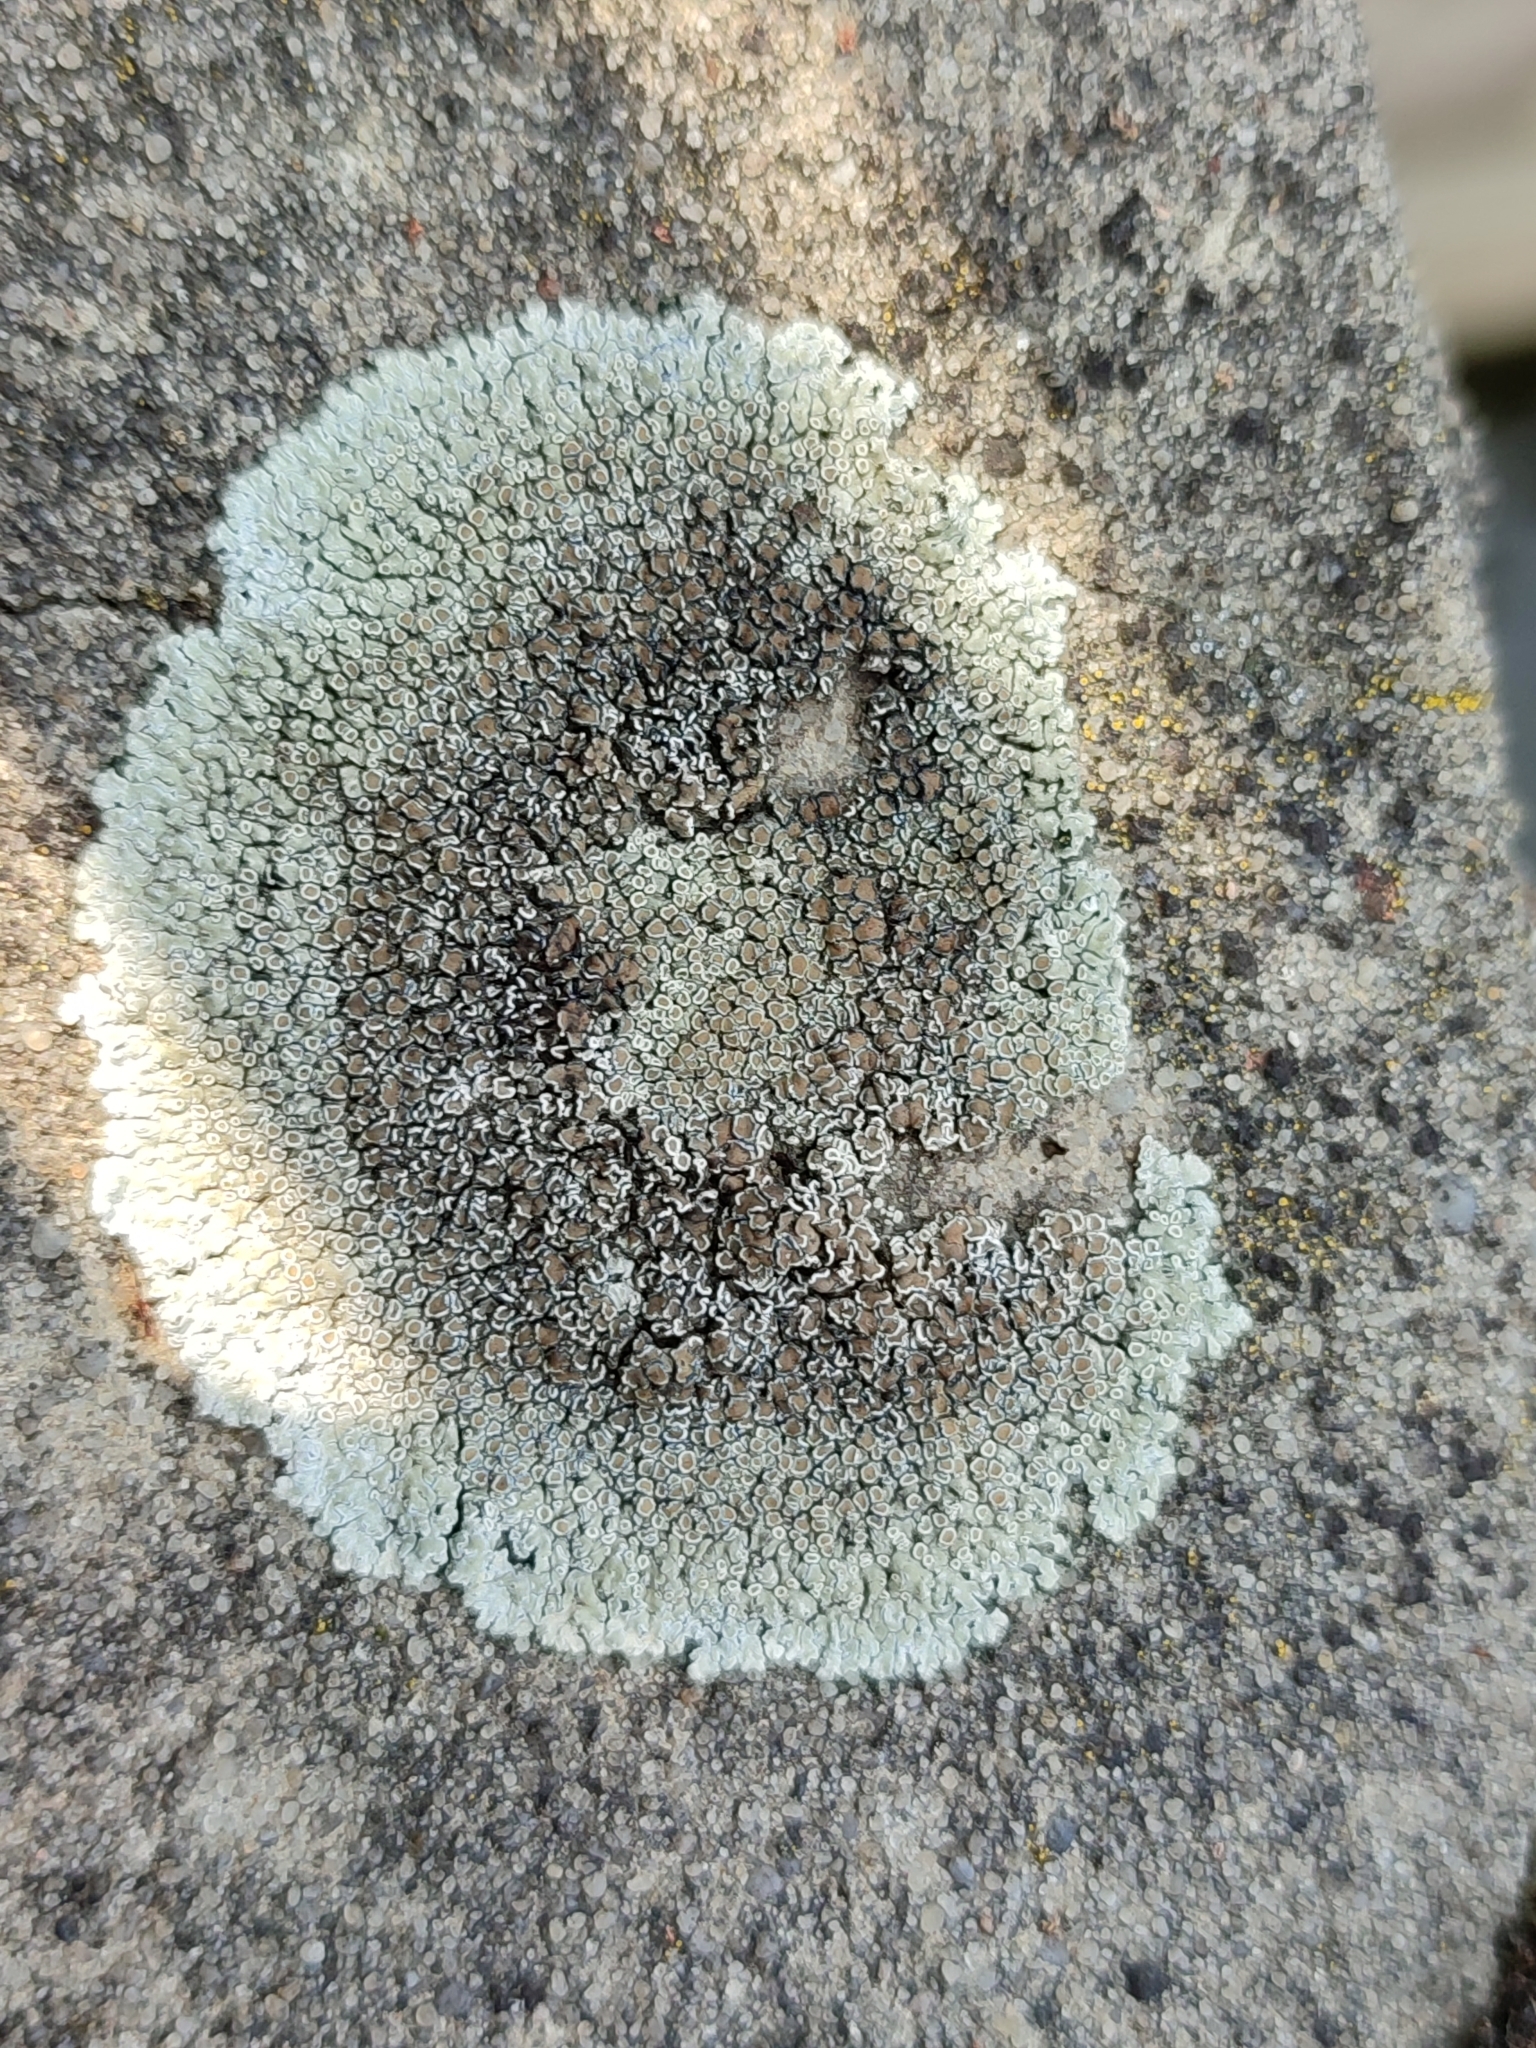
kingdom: Fungi
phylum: Ascomycota
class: Lecanoromycetes
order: Lecanorales
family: Lecanoraceae
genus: Protoparmeliopsis
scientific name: Protoparmeliopsis muralis
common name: Stonewall rim lichen
